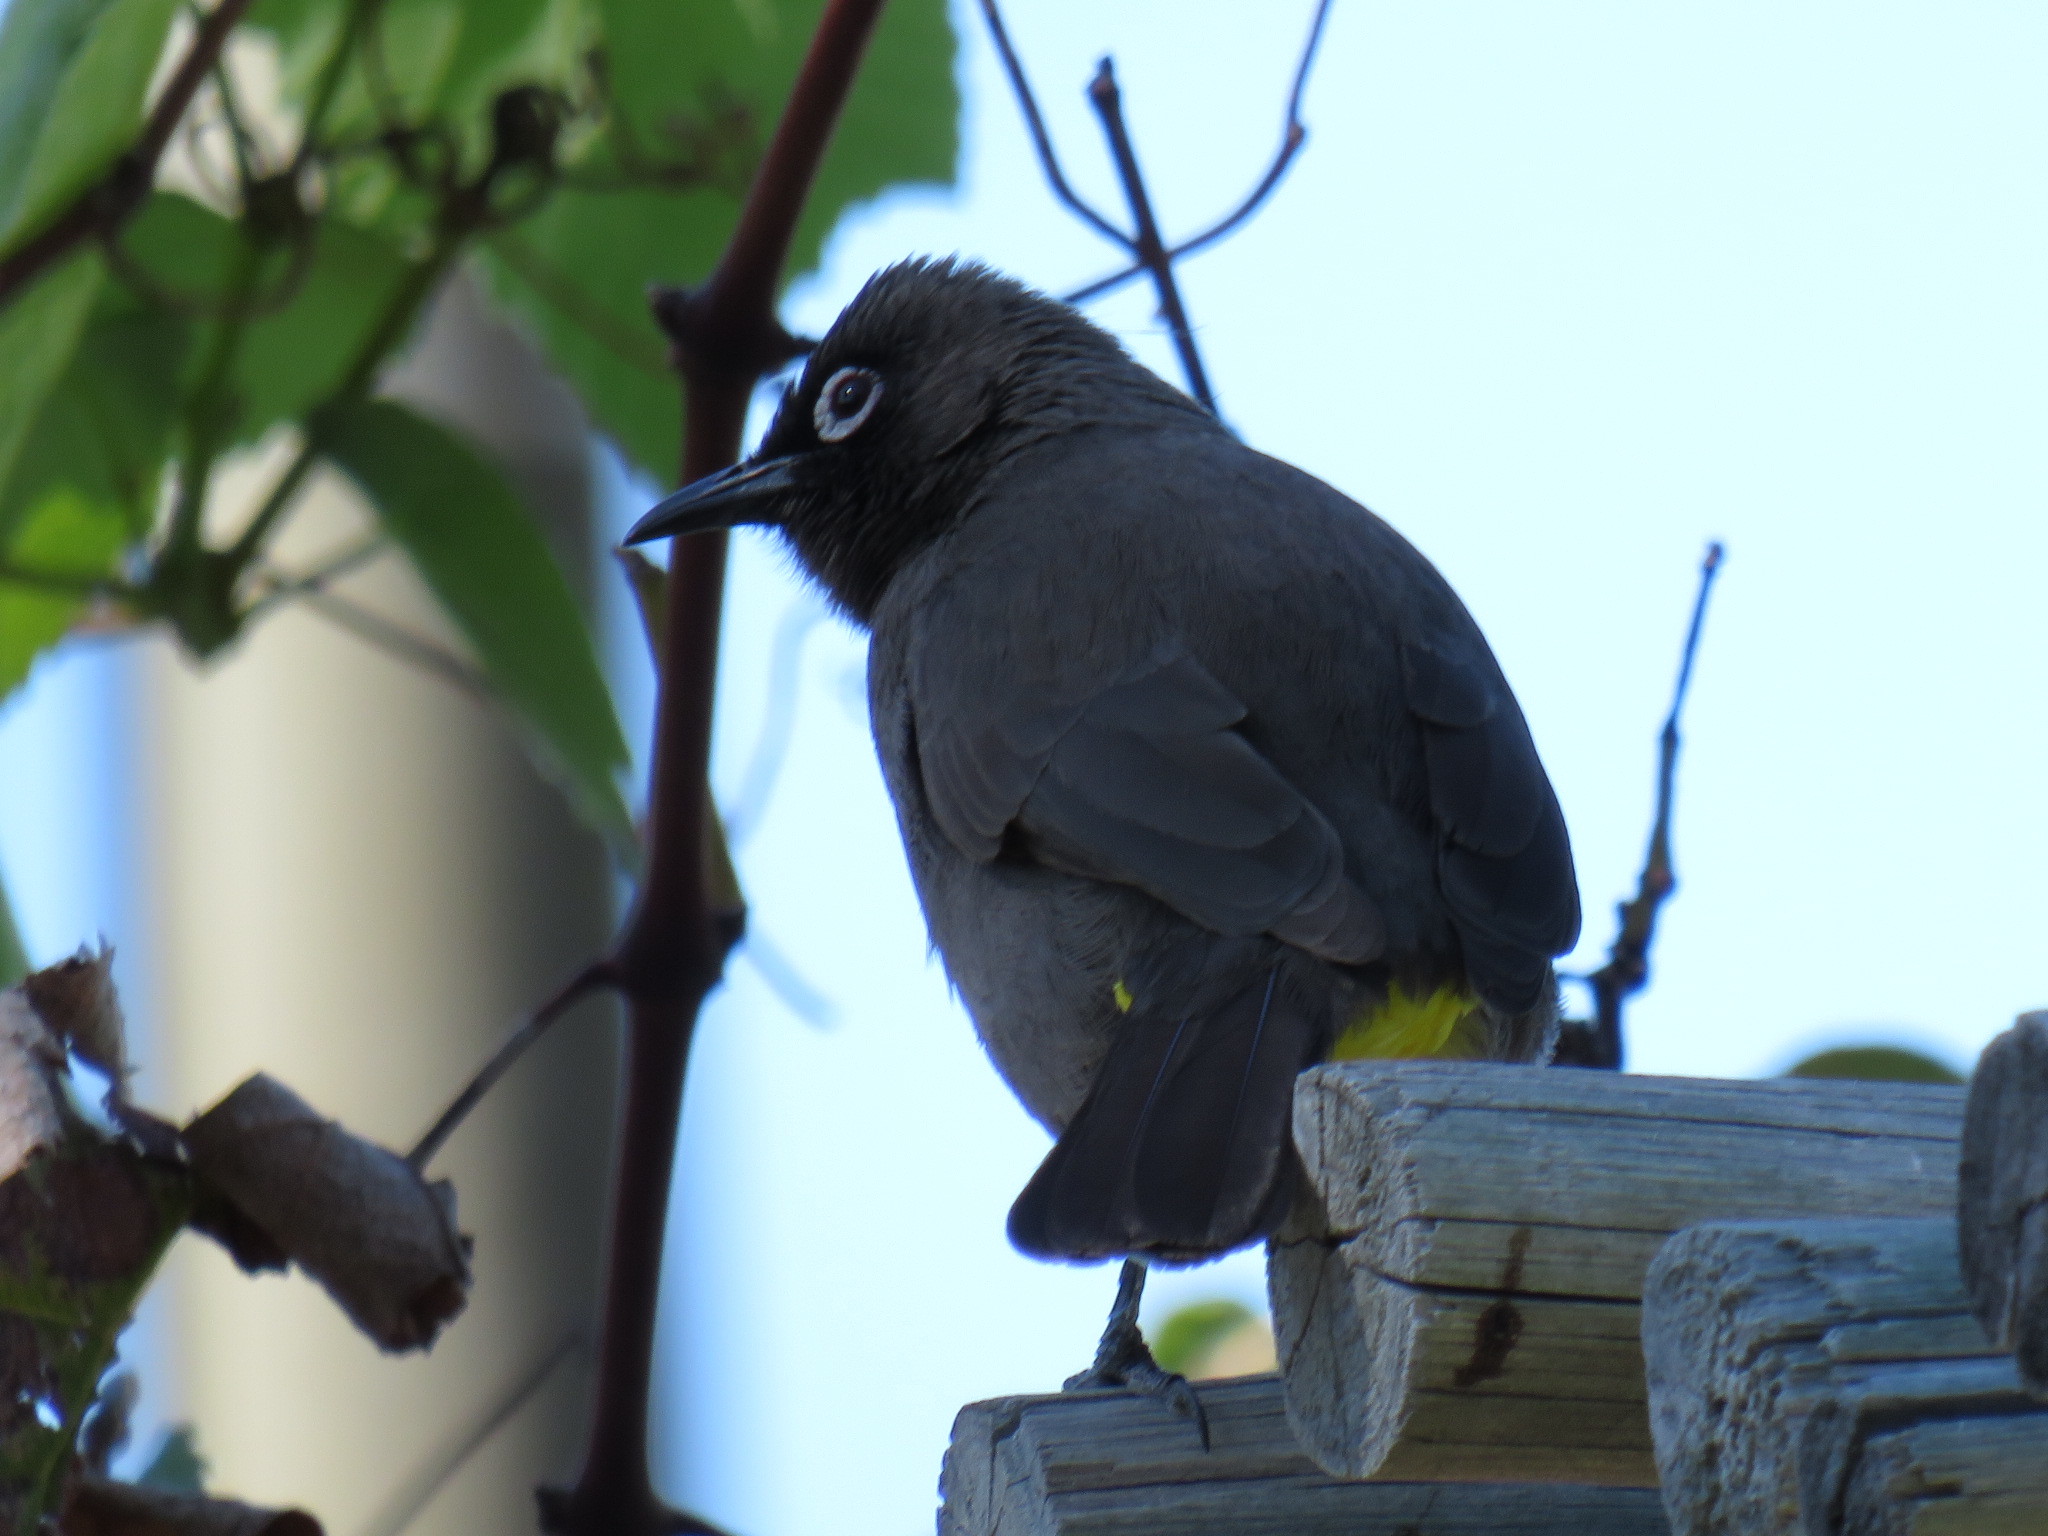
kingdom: Animalia
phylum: Chordata
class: Aves
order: Passeriformes
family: Pycnonotidae
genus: Pycnonotus
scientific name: Pycnonotus capensis
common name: Cape bulbul
